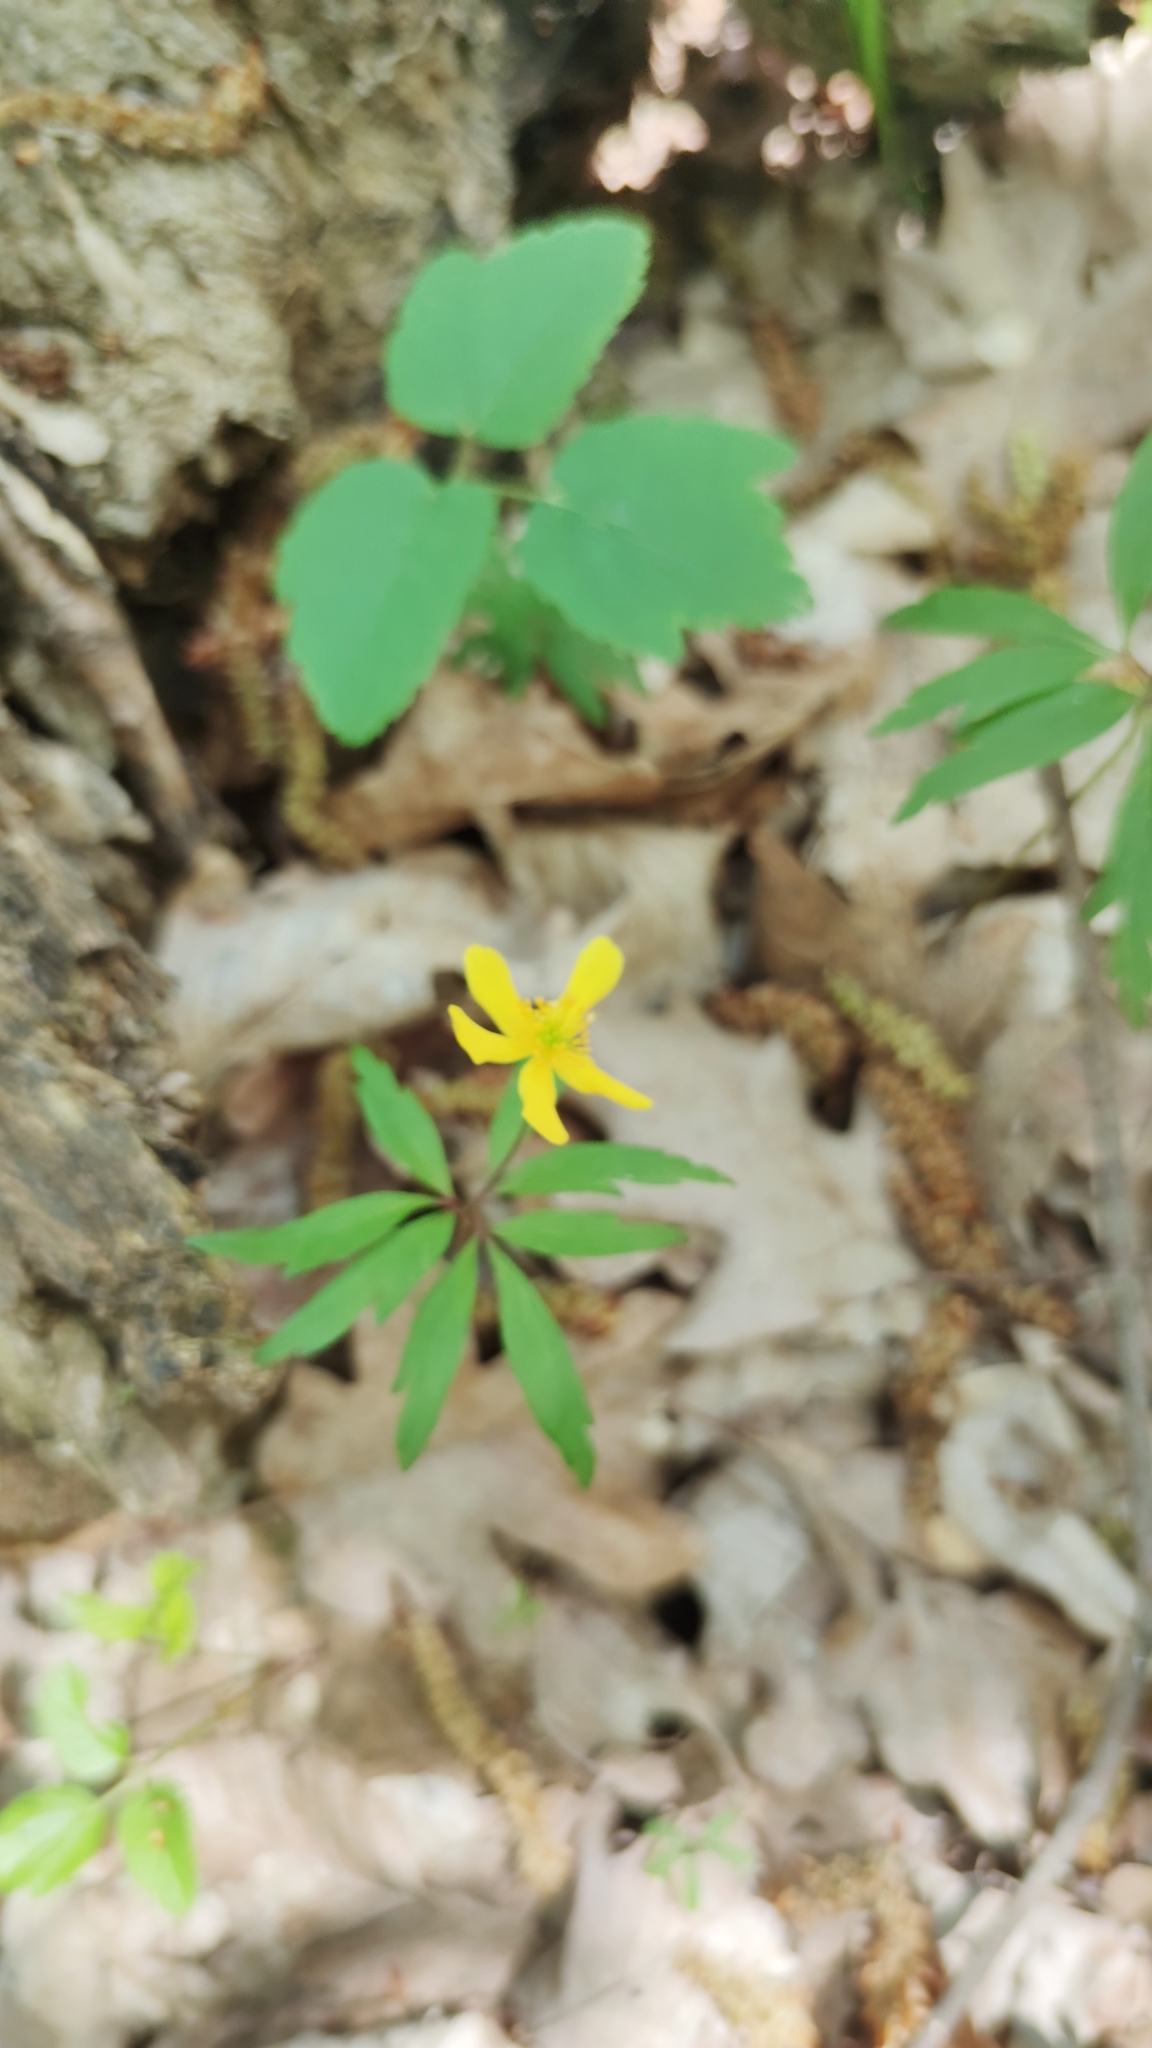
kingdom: Plantae
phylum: Tracheophyta
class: Magnoliopsida
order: Ranunculales
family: Ranunculaceae
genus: Anemone
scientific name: Anemone ranunculoides
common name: Yellow anemone
